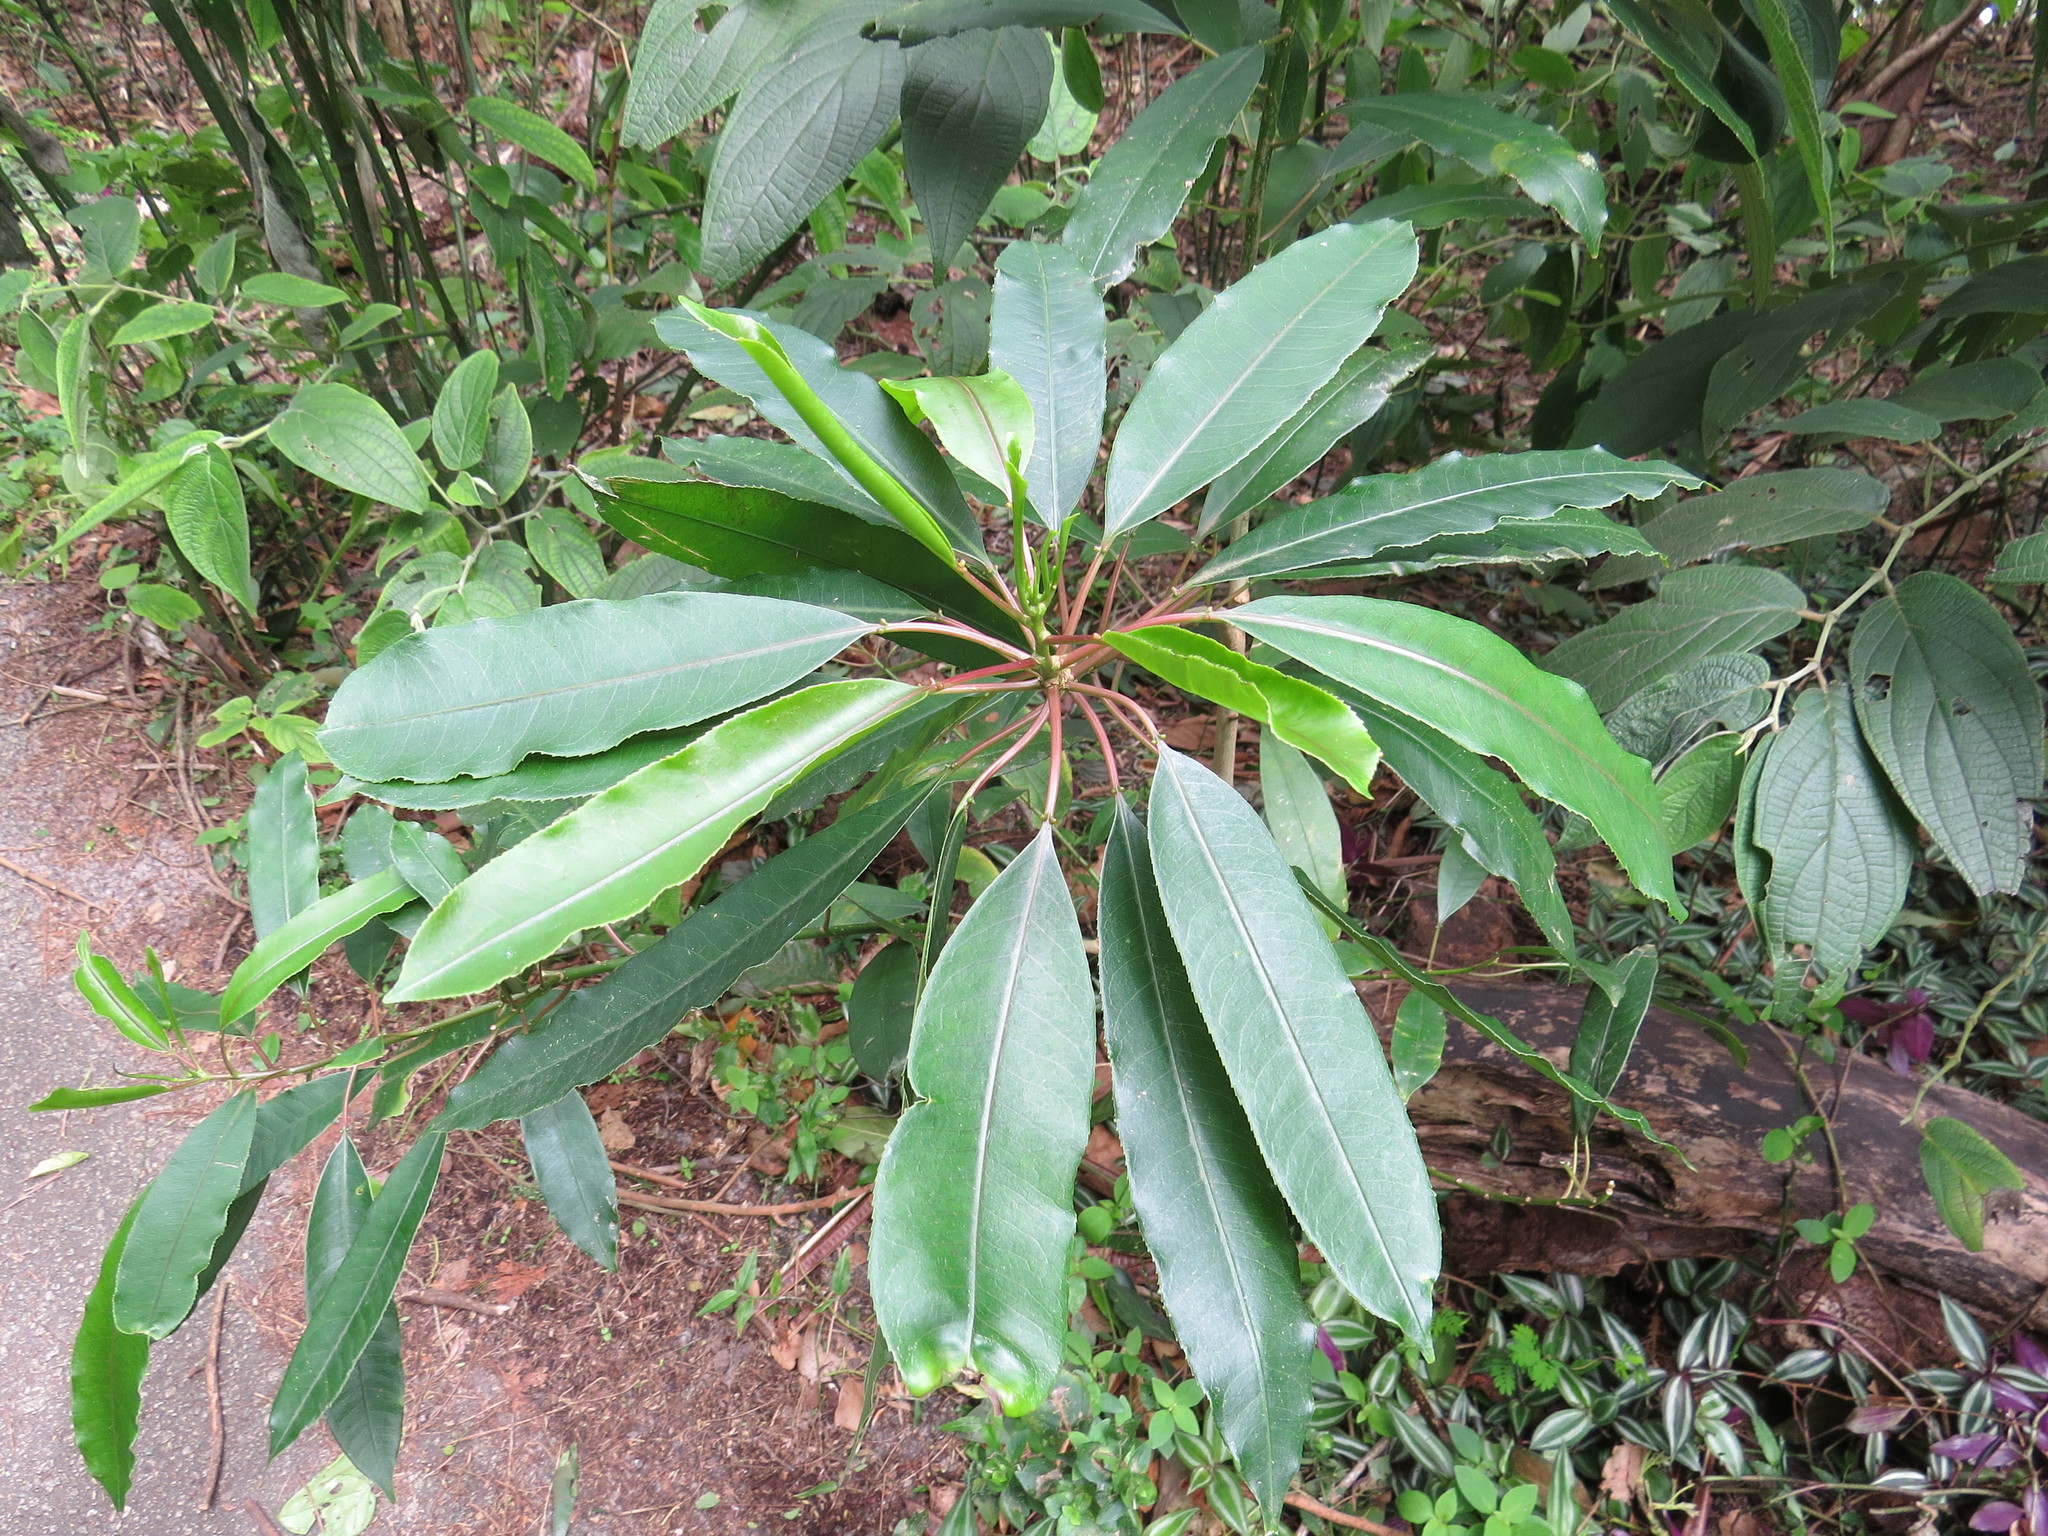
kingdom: Plantae
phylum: Tracheophyta
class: Magnoliopsida
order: Malpighiales
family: Euphorbiaceae
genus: Sapium
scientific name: Sapium glandulosum
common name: Milktree
